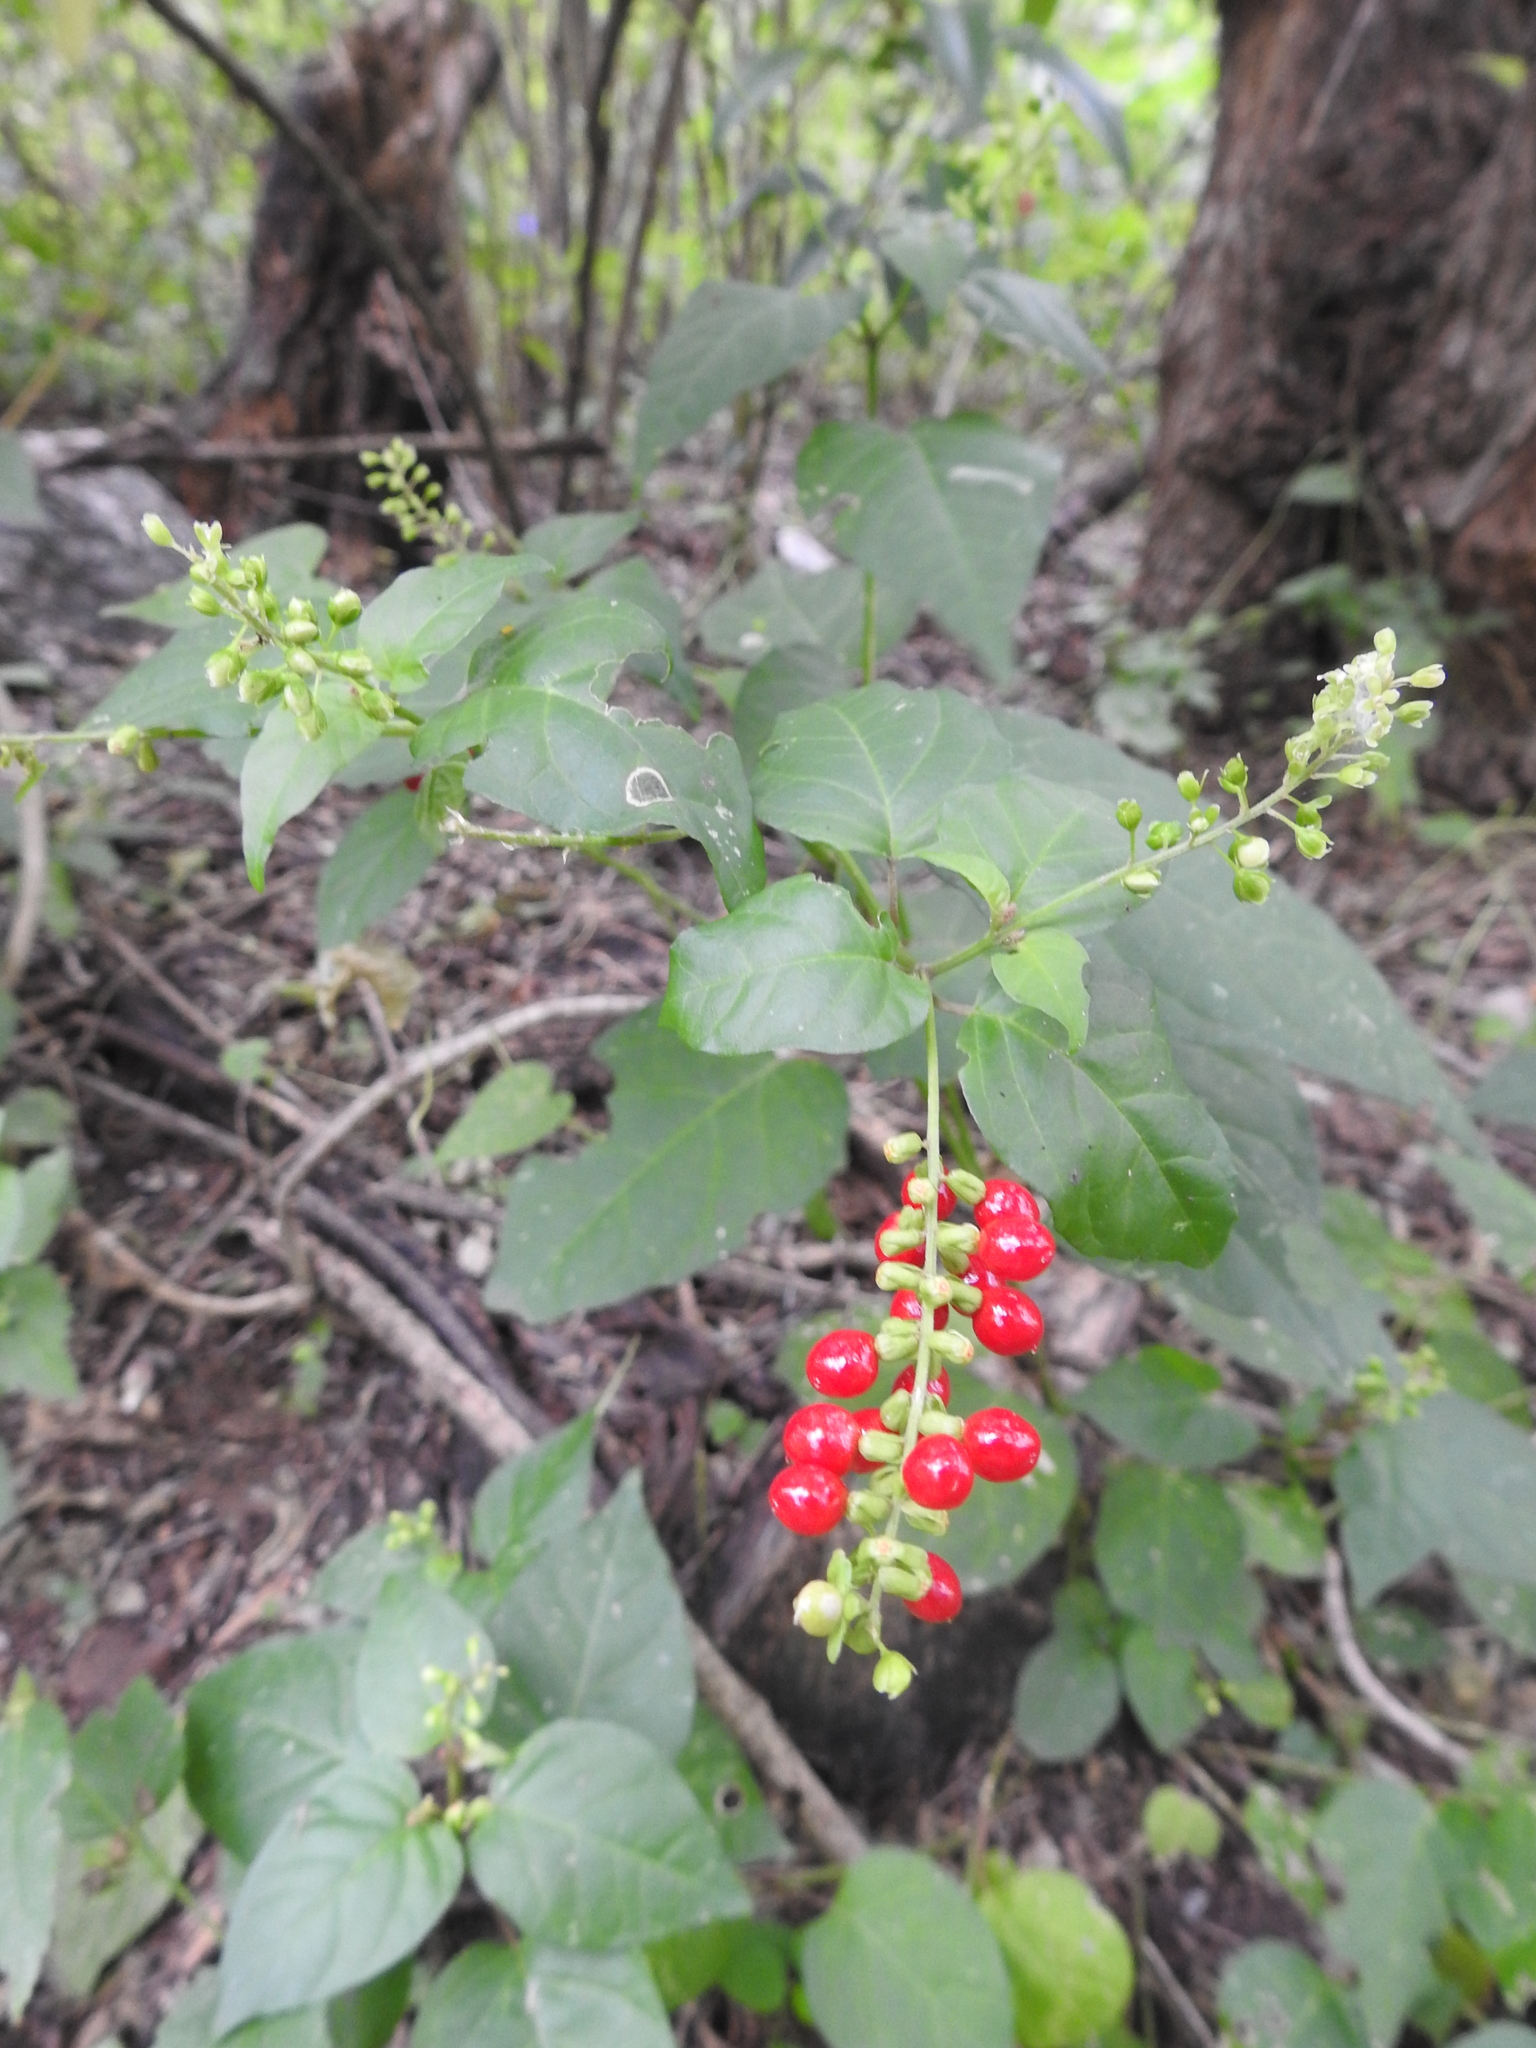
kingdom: Plantae
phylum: Tracheophyta
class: Magnoliopsida
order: Caryophyllales
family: Phytolaccaceae
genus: Rivina
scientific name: Rivina humilis
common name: Rougeplant
